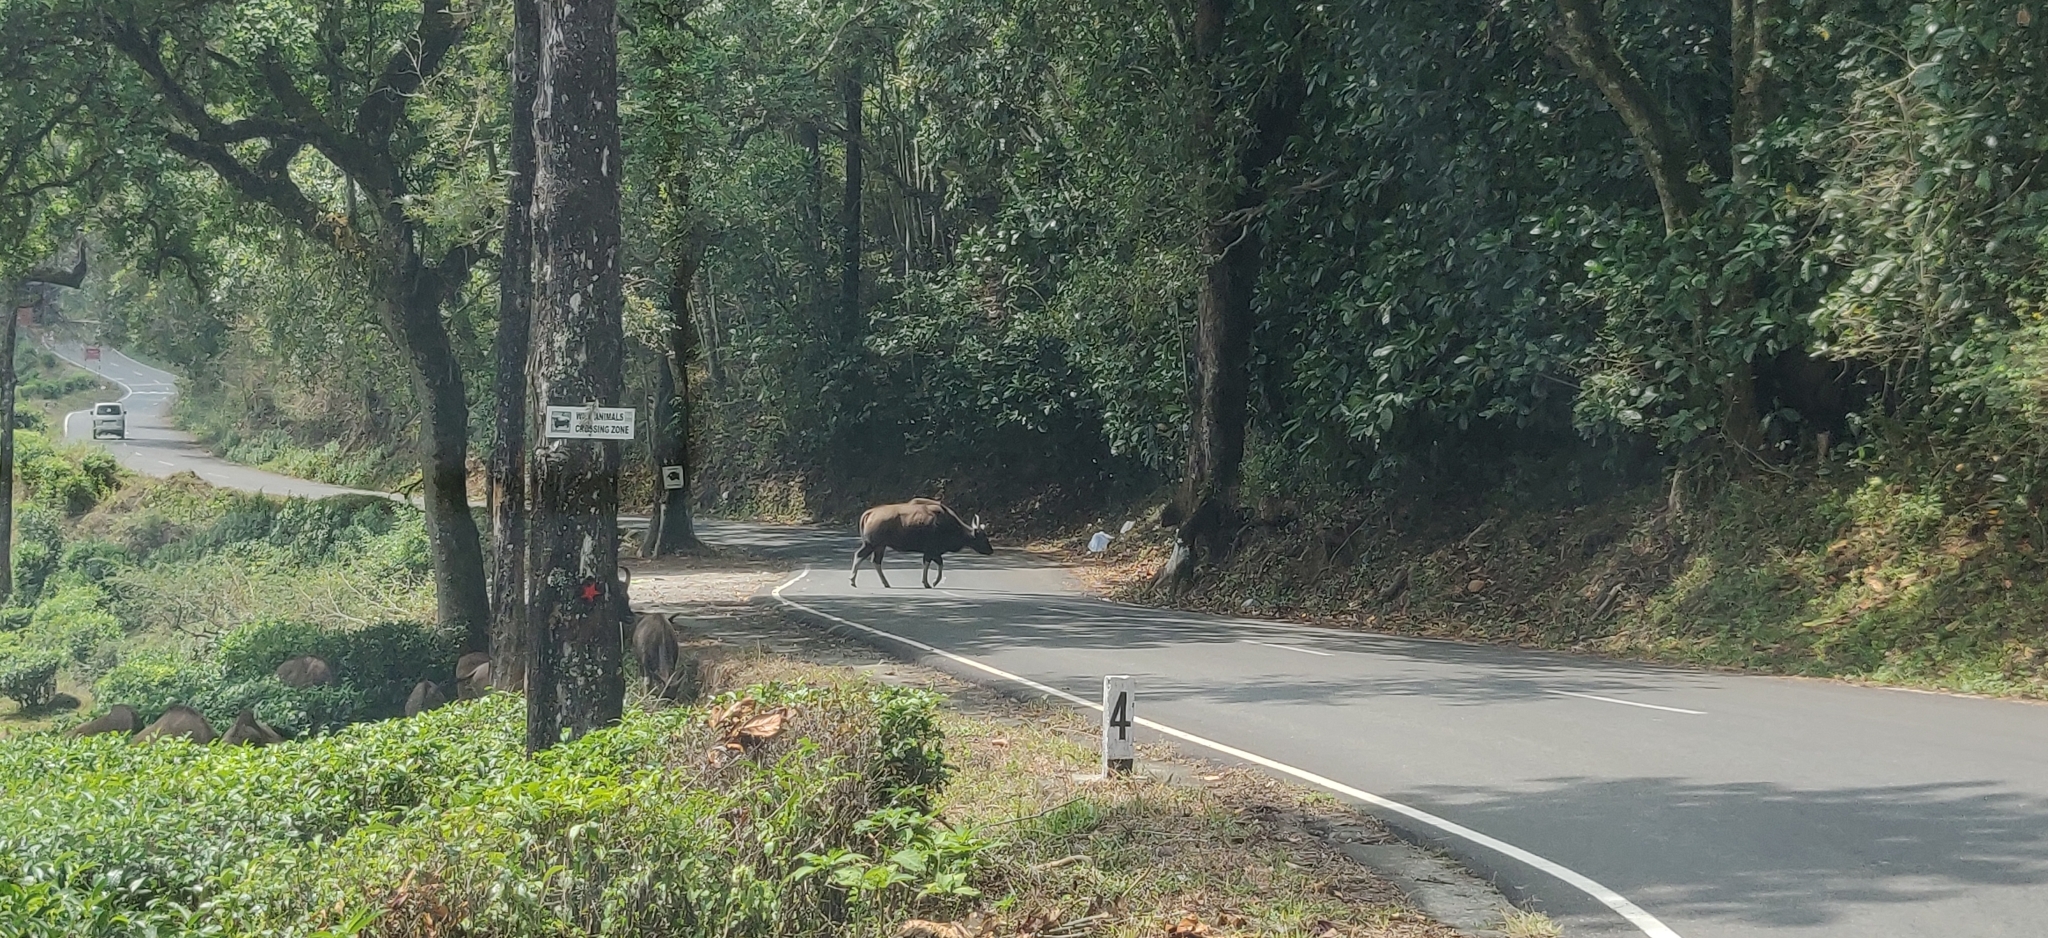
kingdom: Animalia
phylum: Chordata
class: Mammalia
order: Artiodactyla
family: Bovidae
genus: Bos
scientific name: Bos frontalis
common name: Gaur
